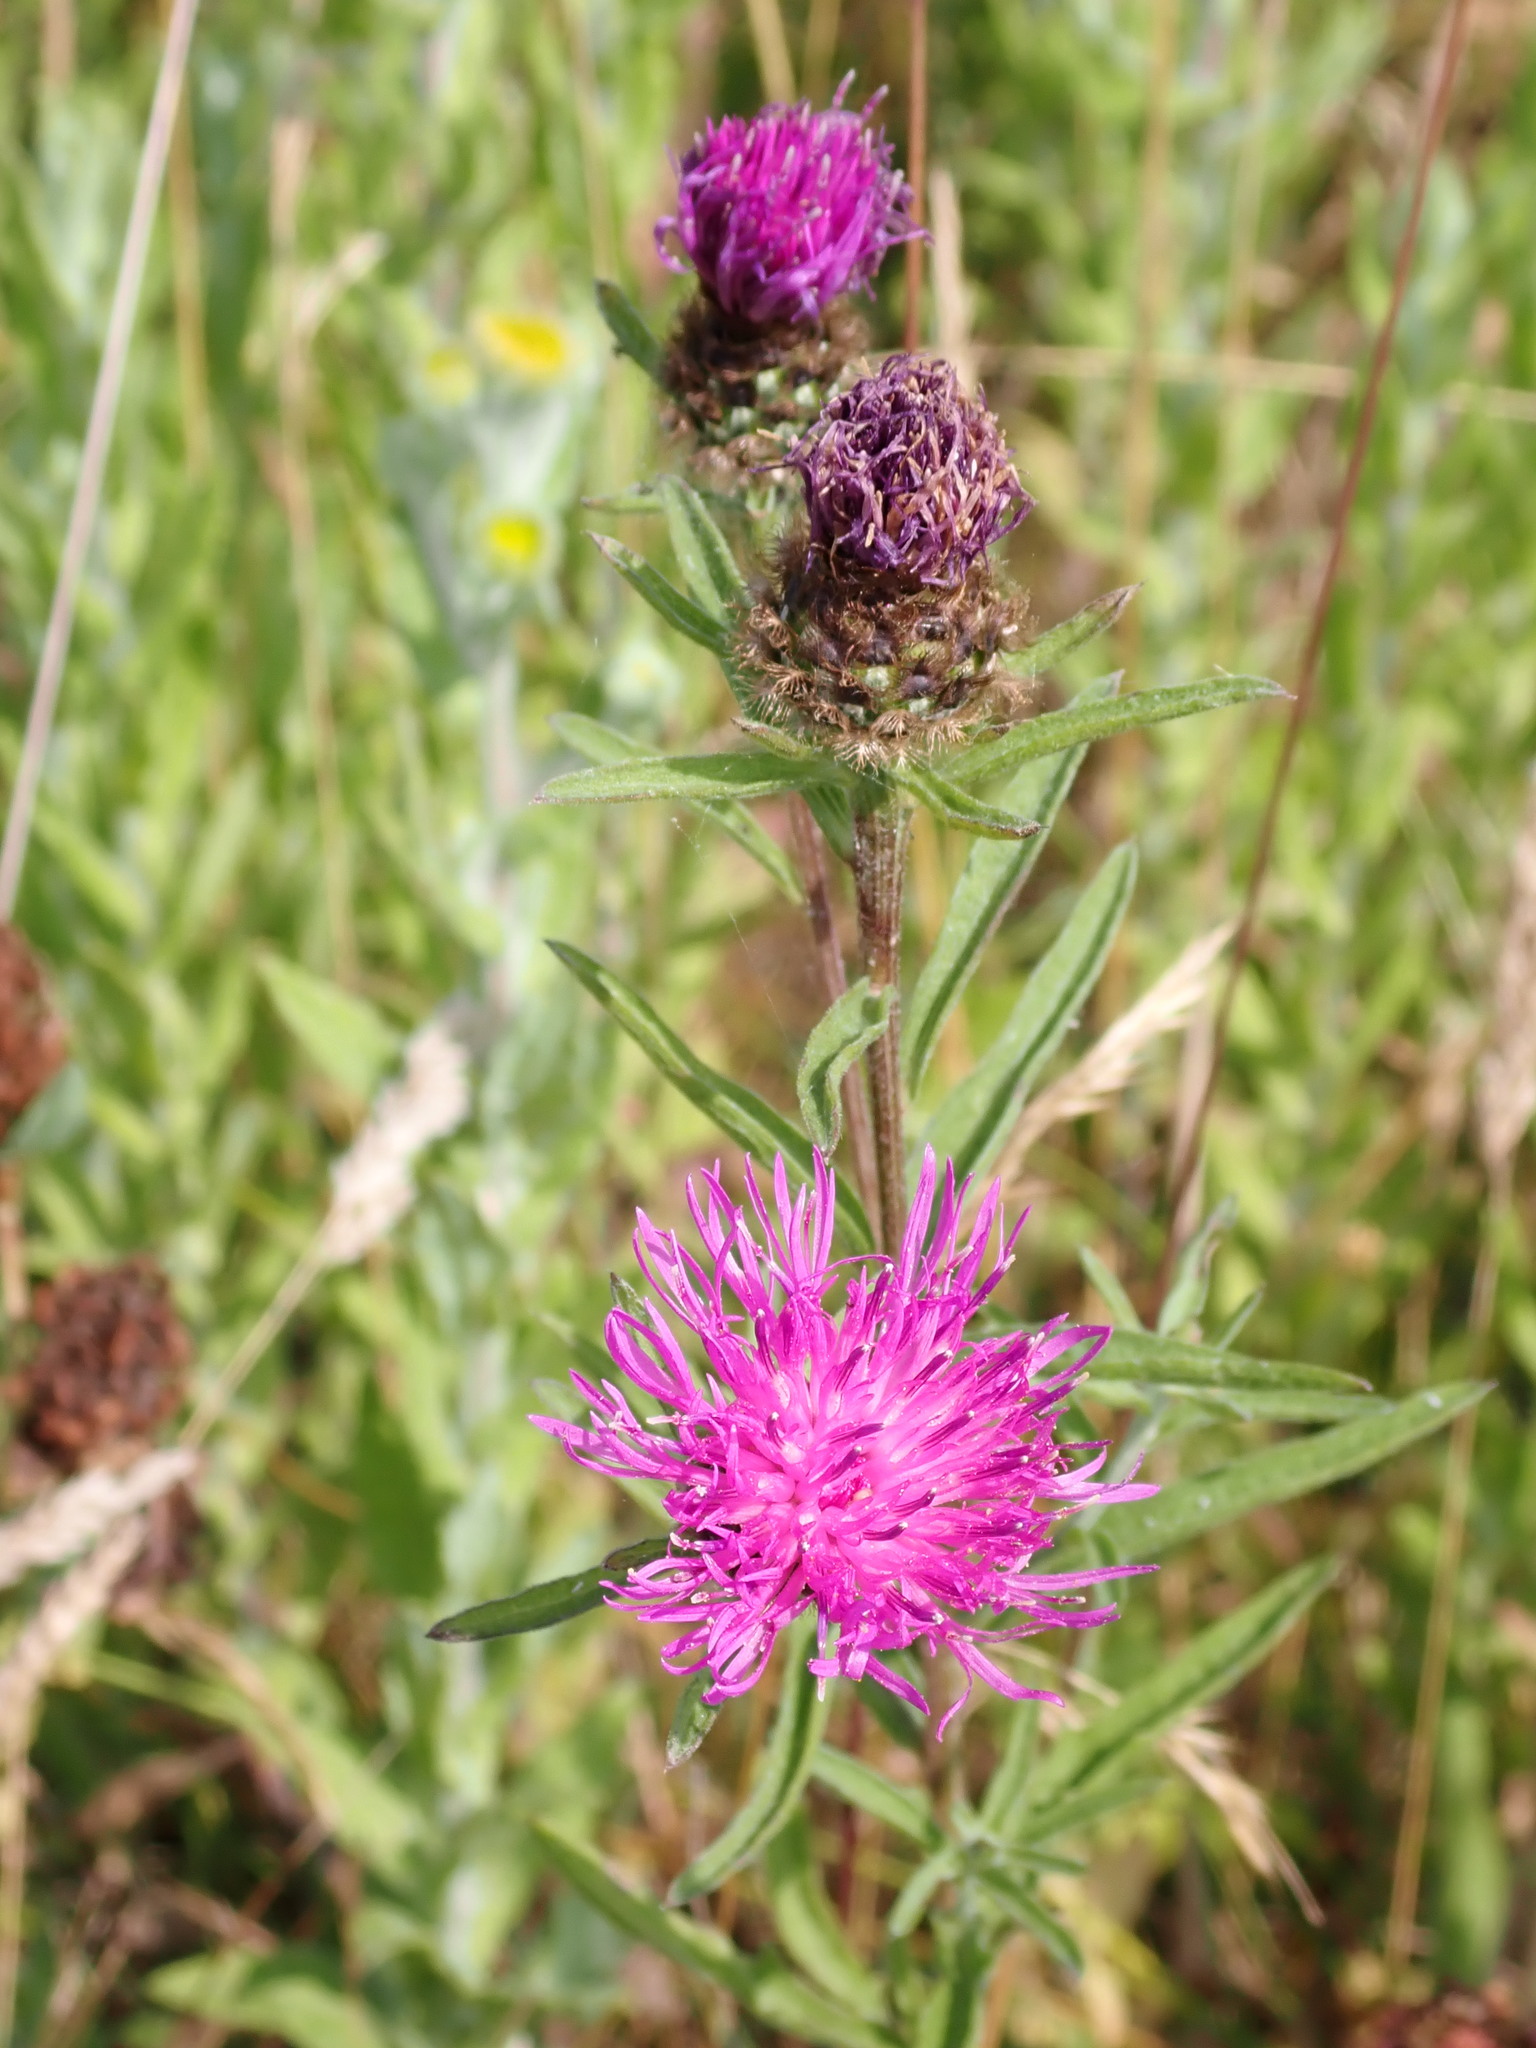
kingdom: Plantae
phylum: Tracheophyta
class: Magnoliopsida
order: Asterales
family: Asteraceae
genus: Centaurea
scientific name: Centaurea nigra
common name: Lesser knapweed
